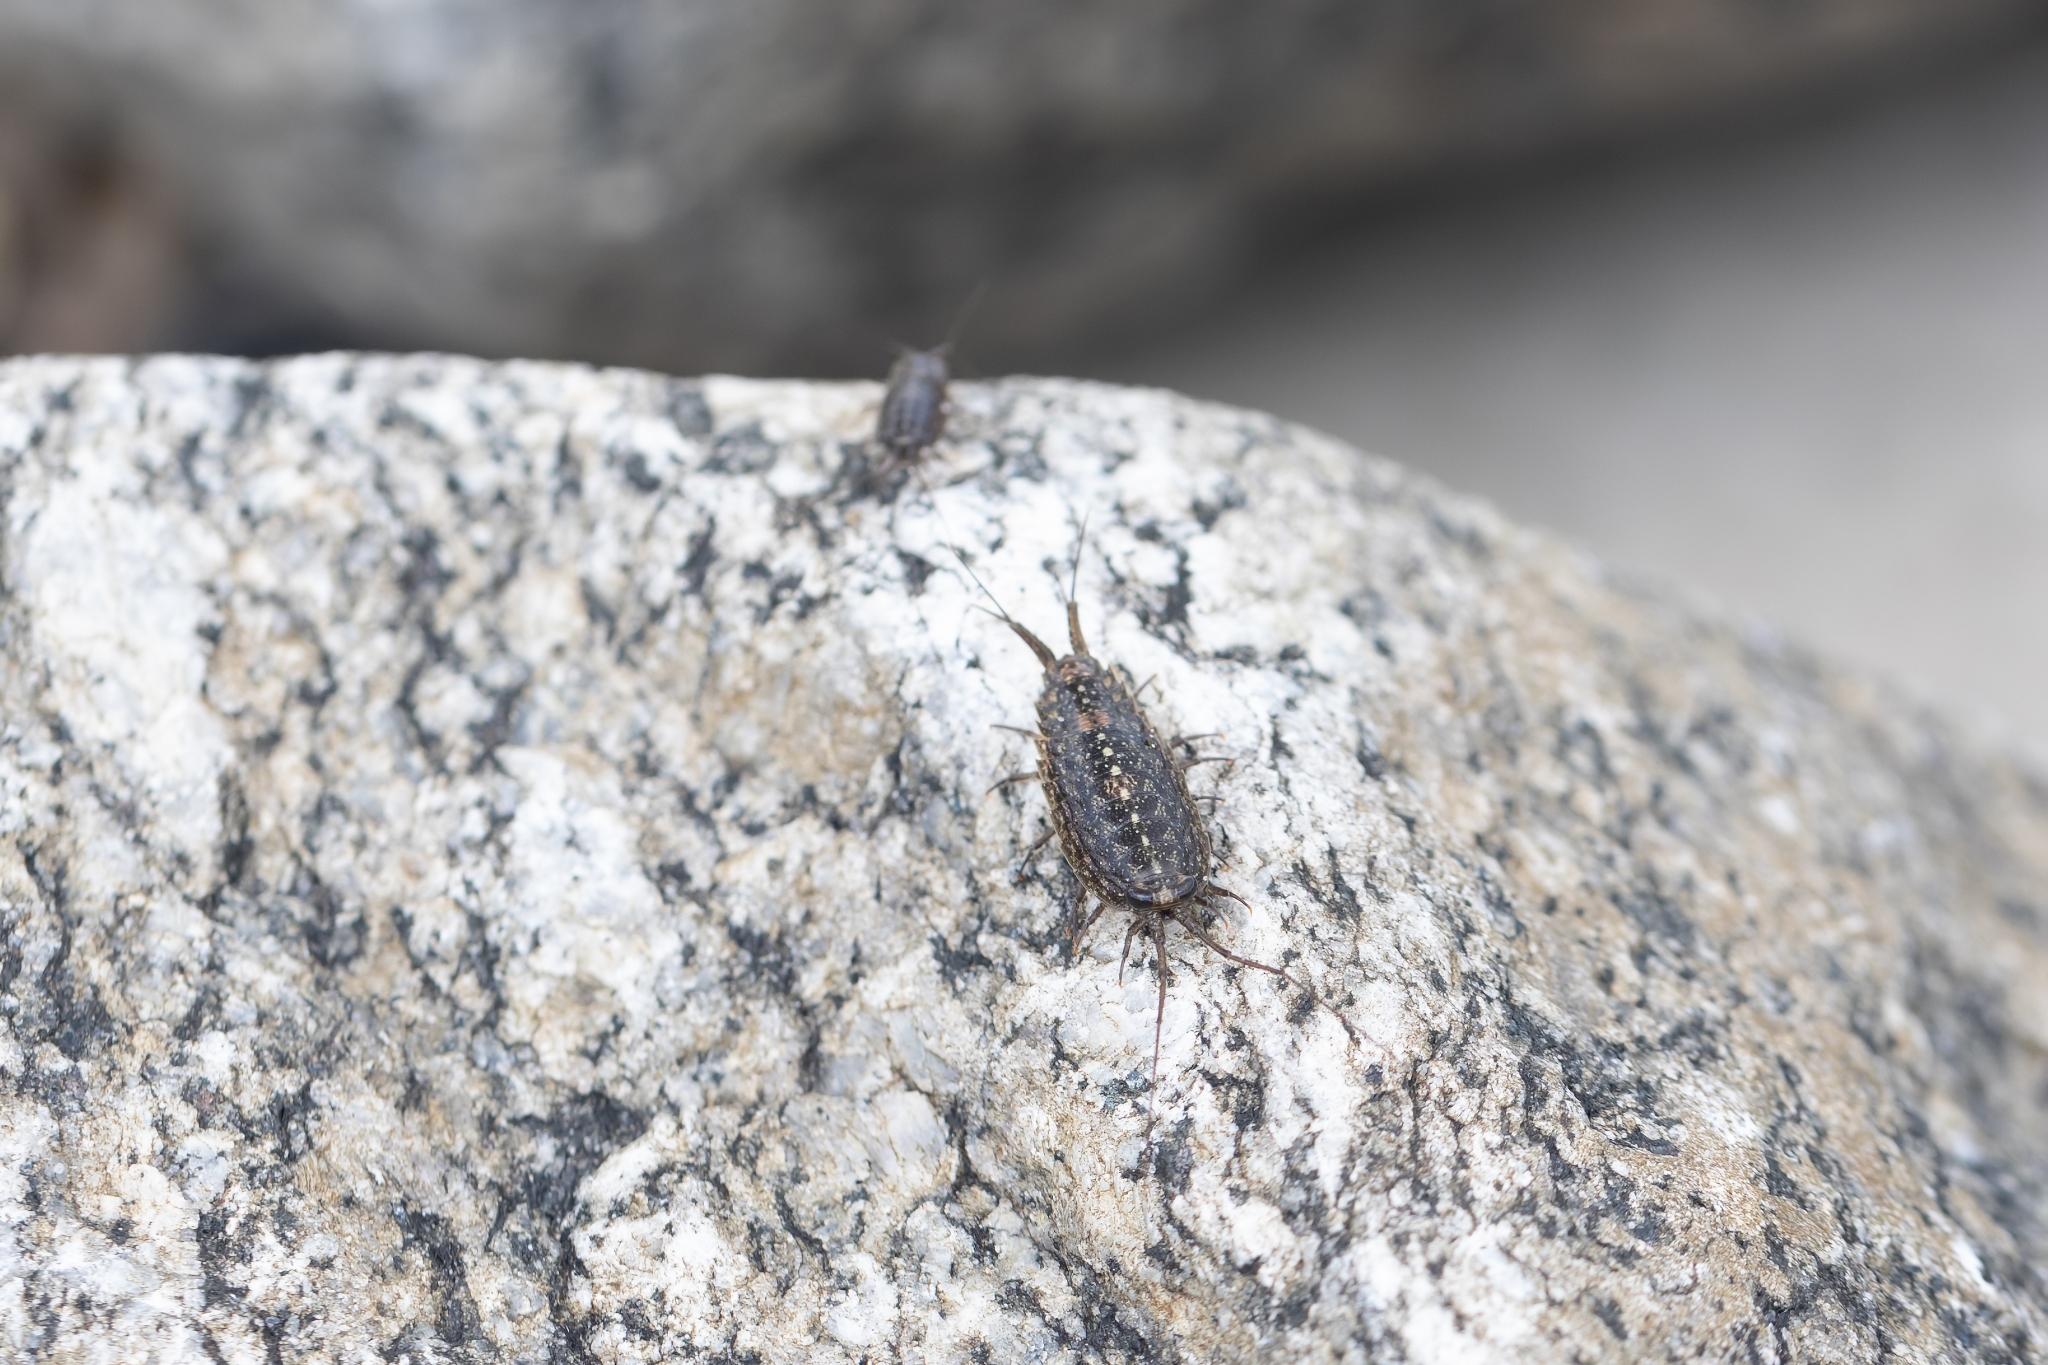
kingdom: Animalia
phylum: Arthropoda
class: Malacostraca
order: Isopoda
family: Ligiidae
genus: Ligia
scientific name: Ligia exotica
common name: Wharf roach
